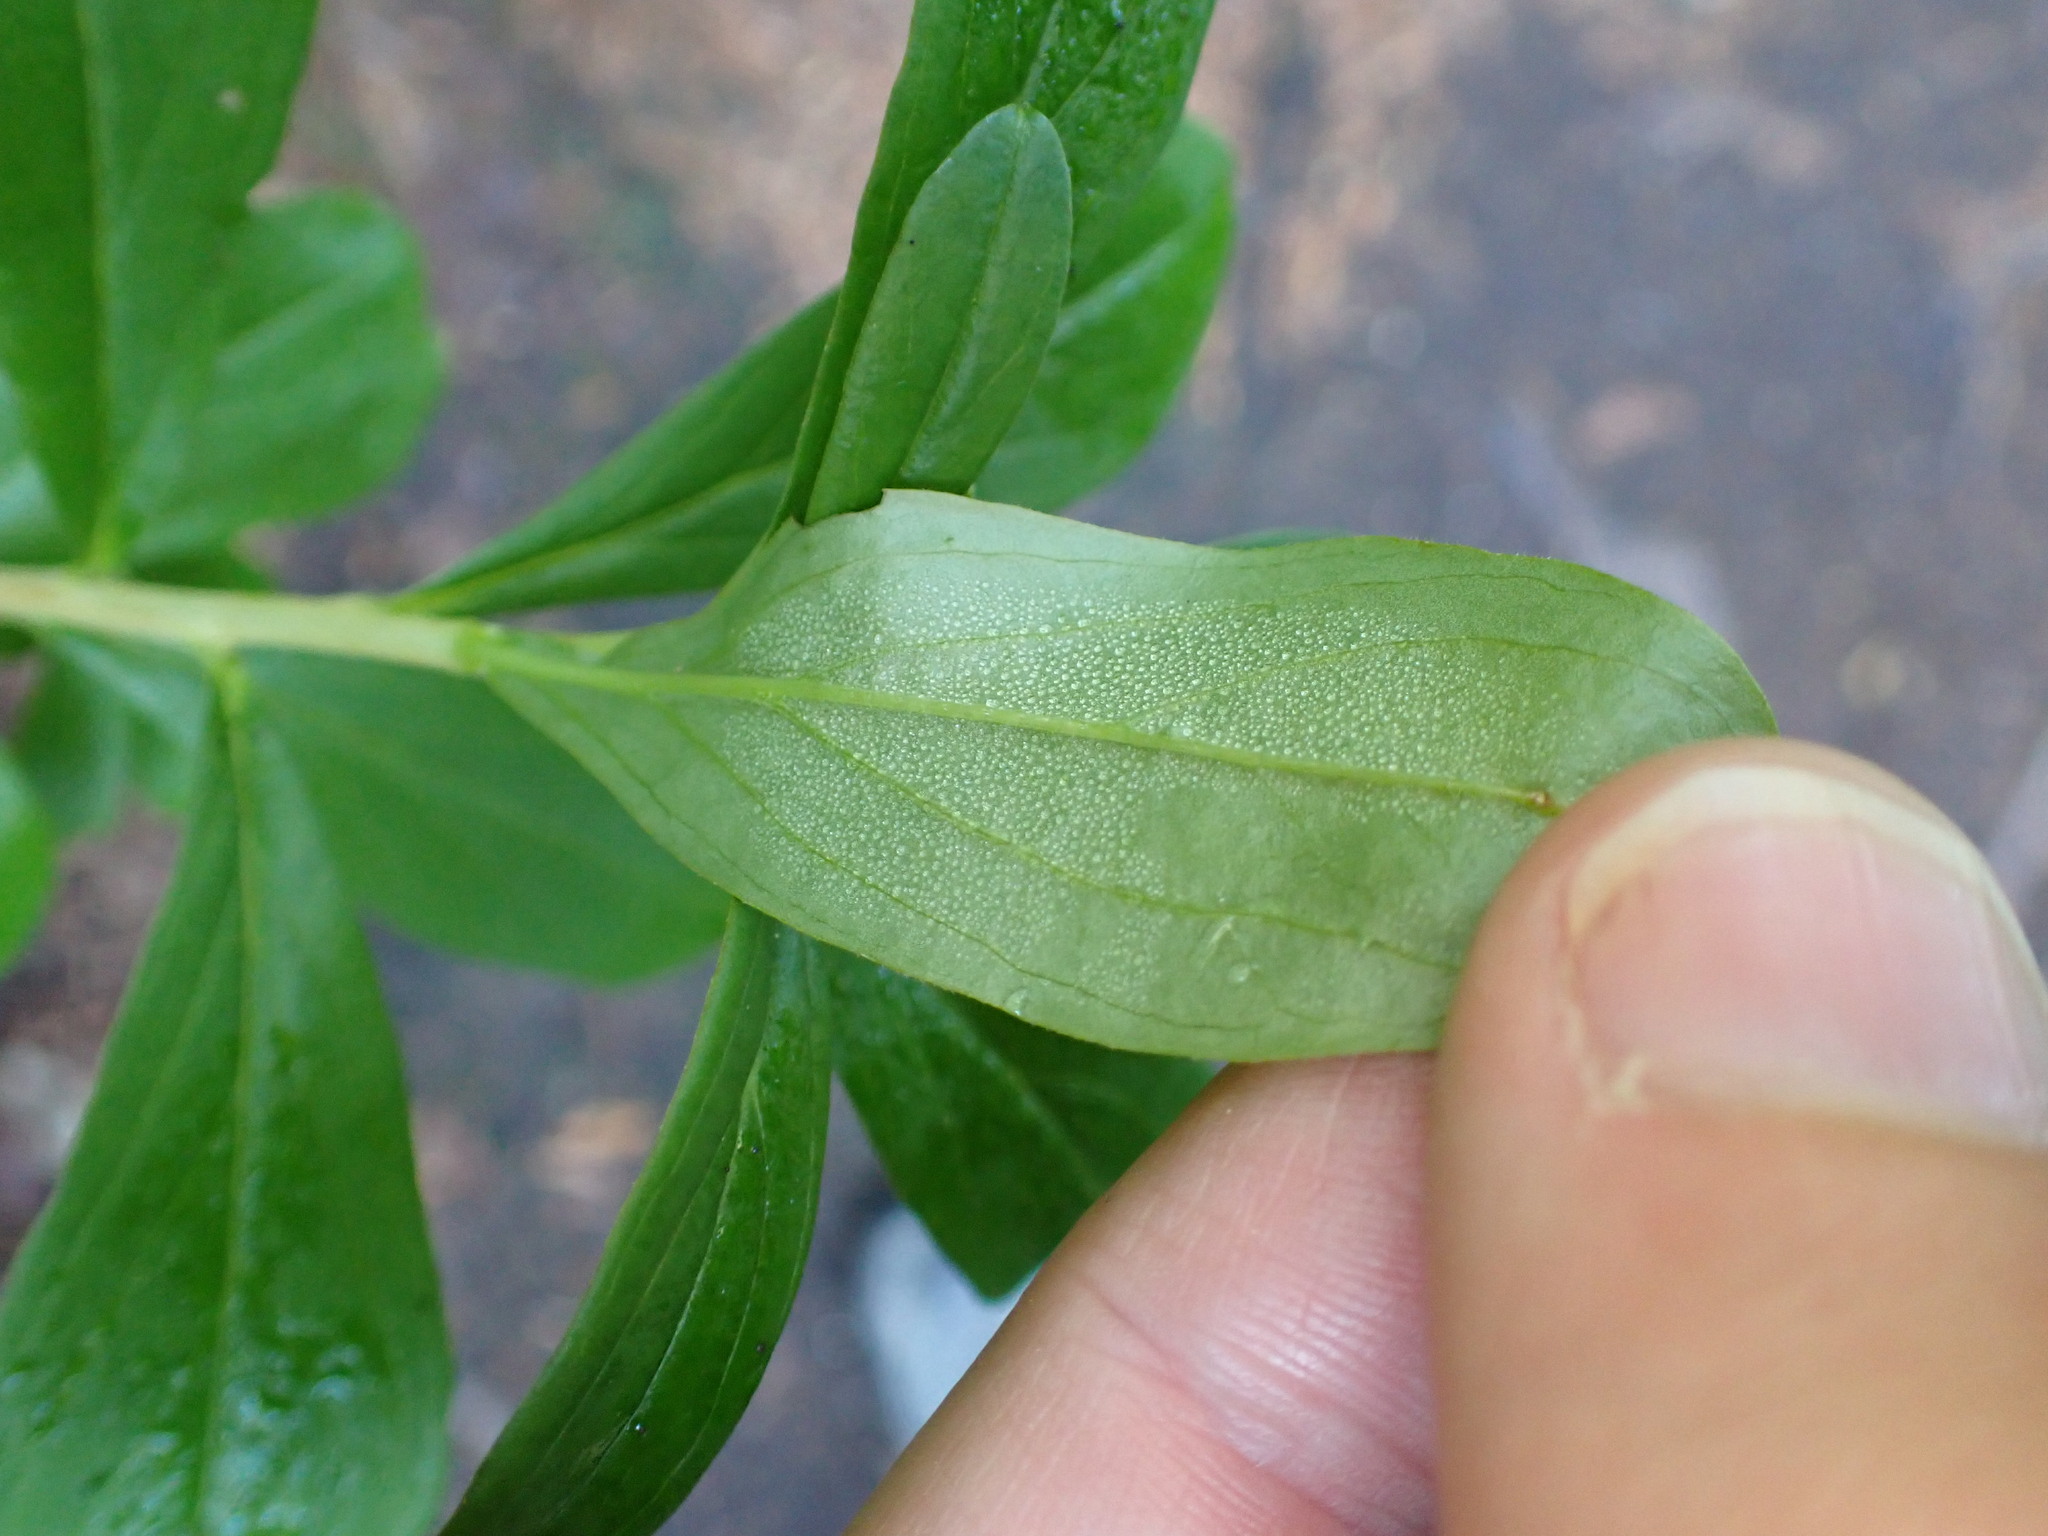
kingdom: Plantae
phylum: Tracheophyta
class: Magnoliopsida
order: Ericales
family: Ericaceae
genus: Elliottia
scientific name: Elliottia pyroliflora
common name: Copperbush
